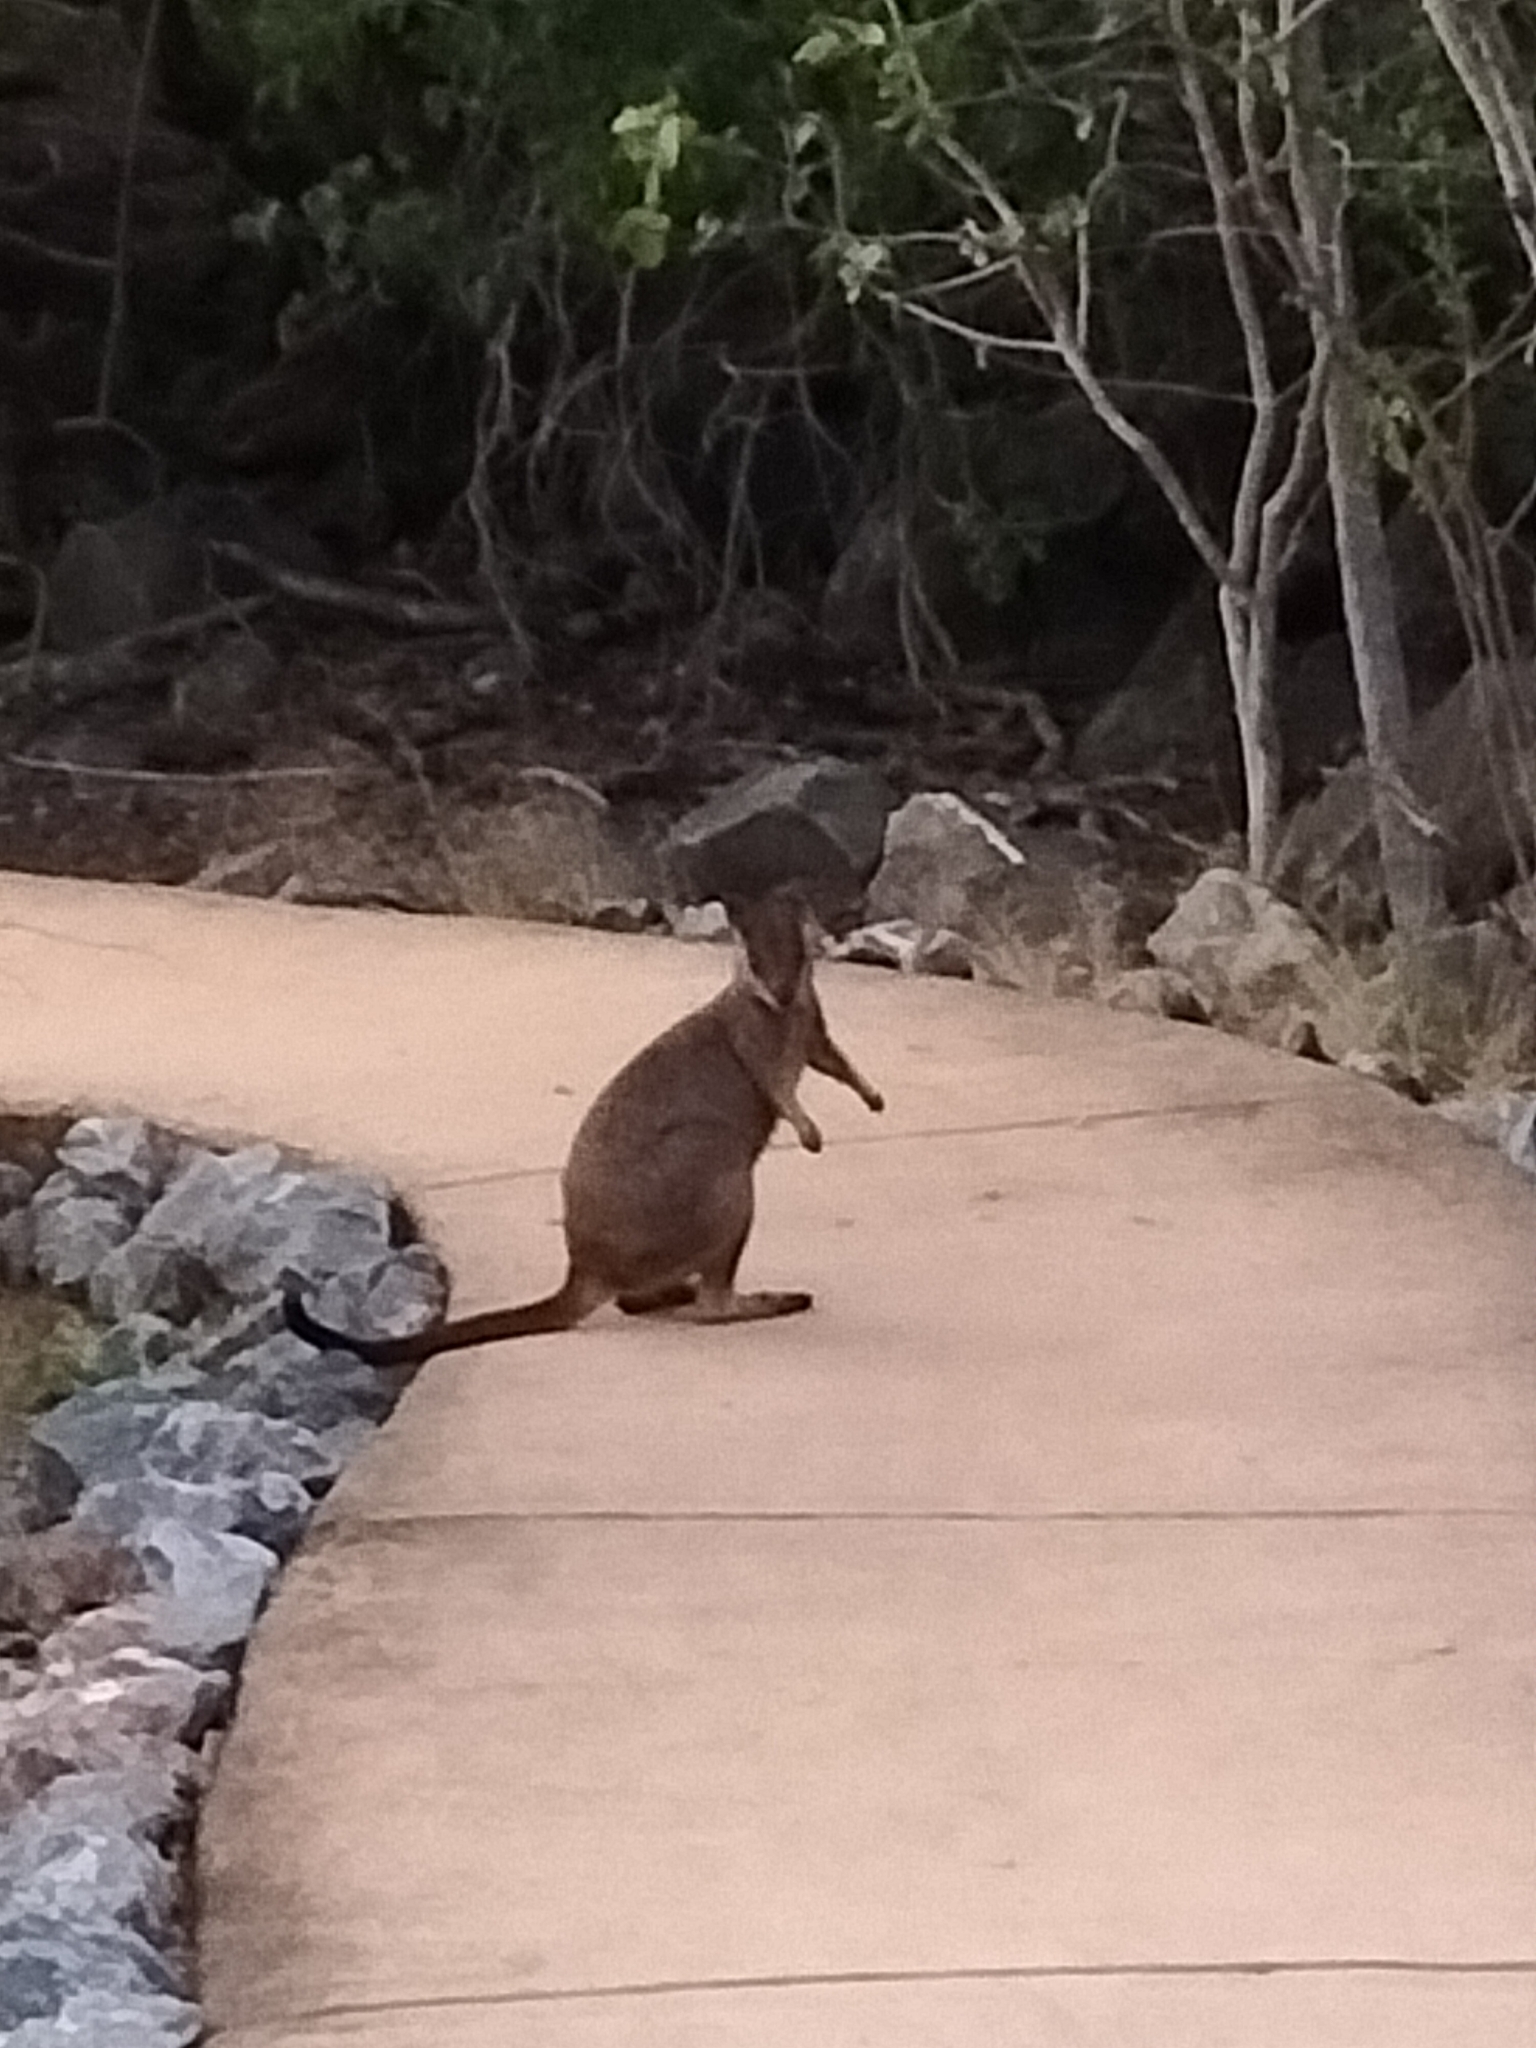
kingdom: Animalia
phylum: Chordata
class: Mammalia
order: Diprotodontia
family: Macropodidae
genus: Petrogale
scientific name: Petrogale mareeba
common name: Mareeba rock-wallaby
